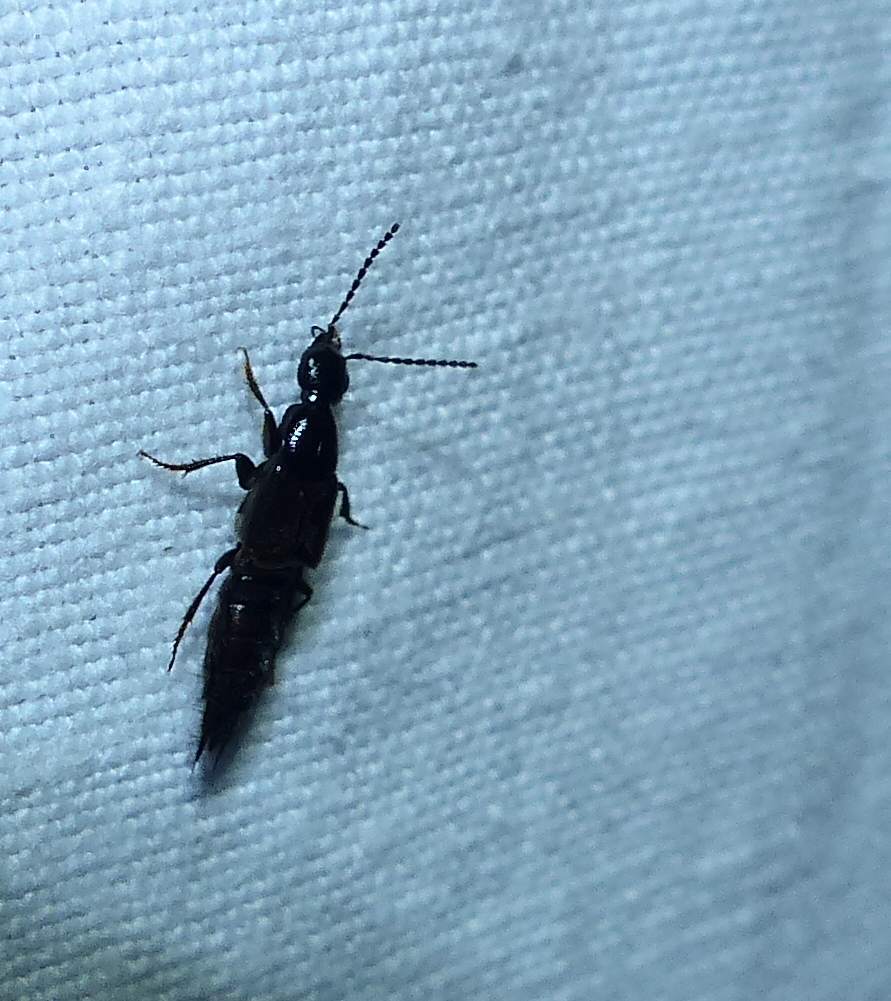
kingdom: Animalia
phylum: Arthropoda
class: Insecta
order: Coleoptera
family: Staphylinidae
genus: Philonthus
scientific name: Philonthus vulgatus
